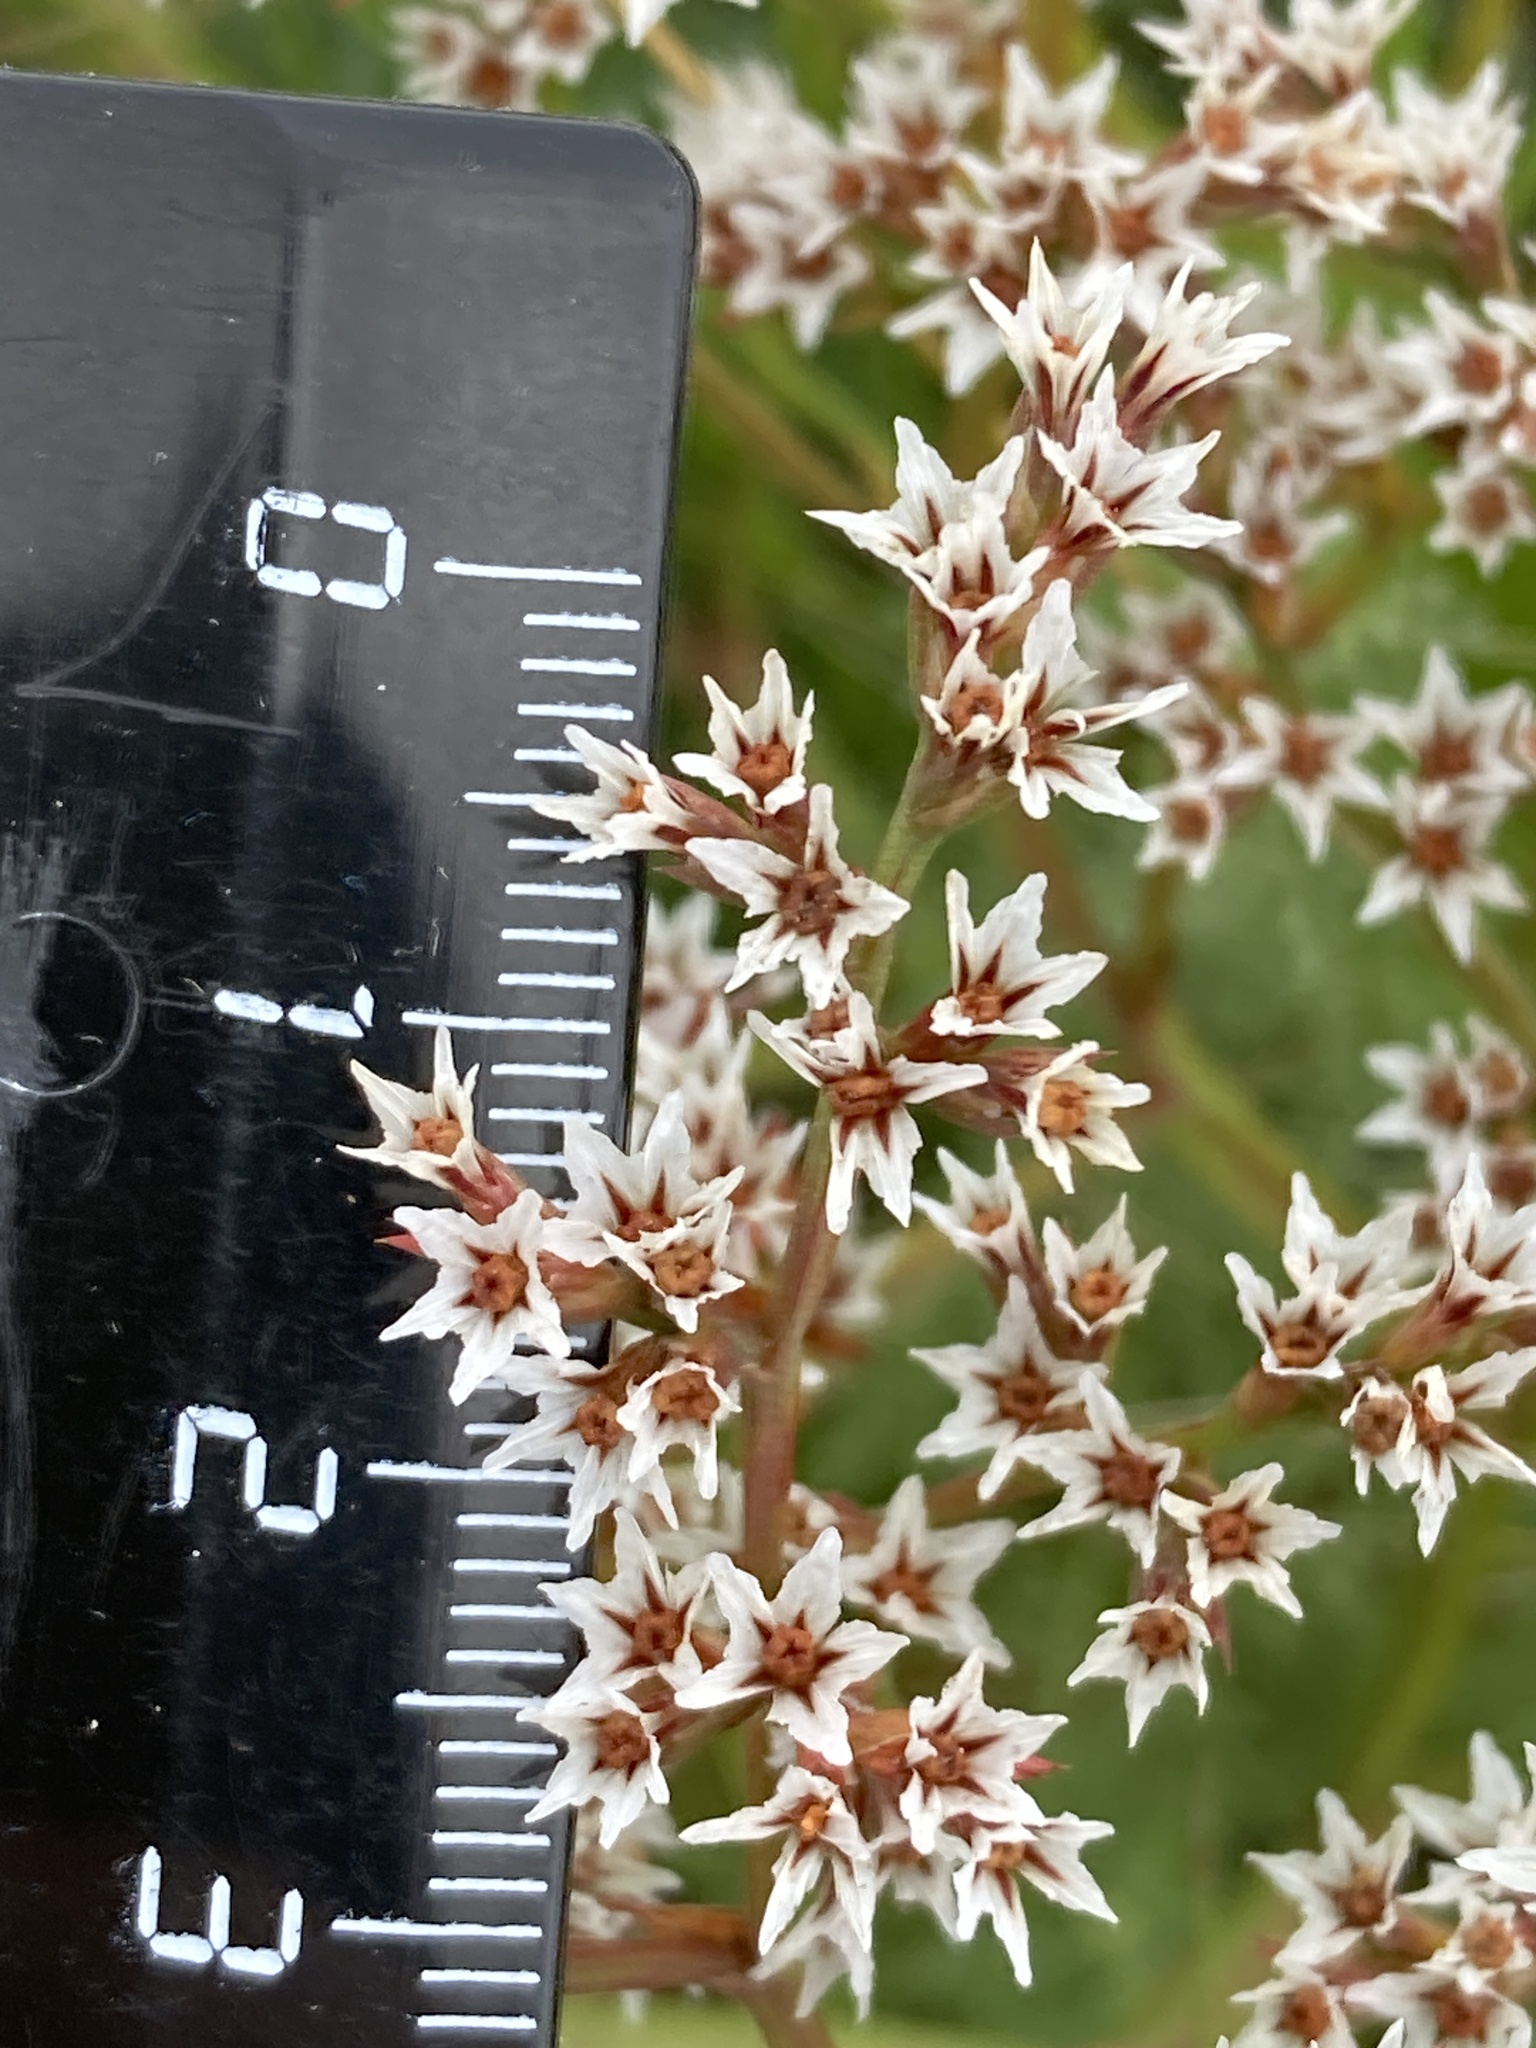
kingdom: Plantae
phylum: Tracheophyta
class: Magnoliopsida
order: Caryophyllales
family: Plumbaginaceae
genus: Goniolimon
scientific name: Goniolimon tataricum
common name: Statice
